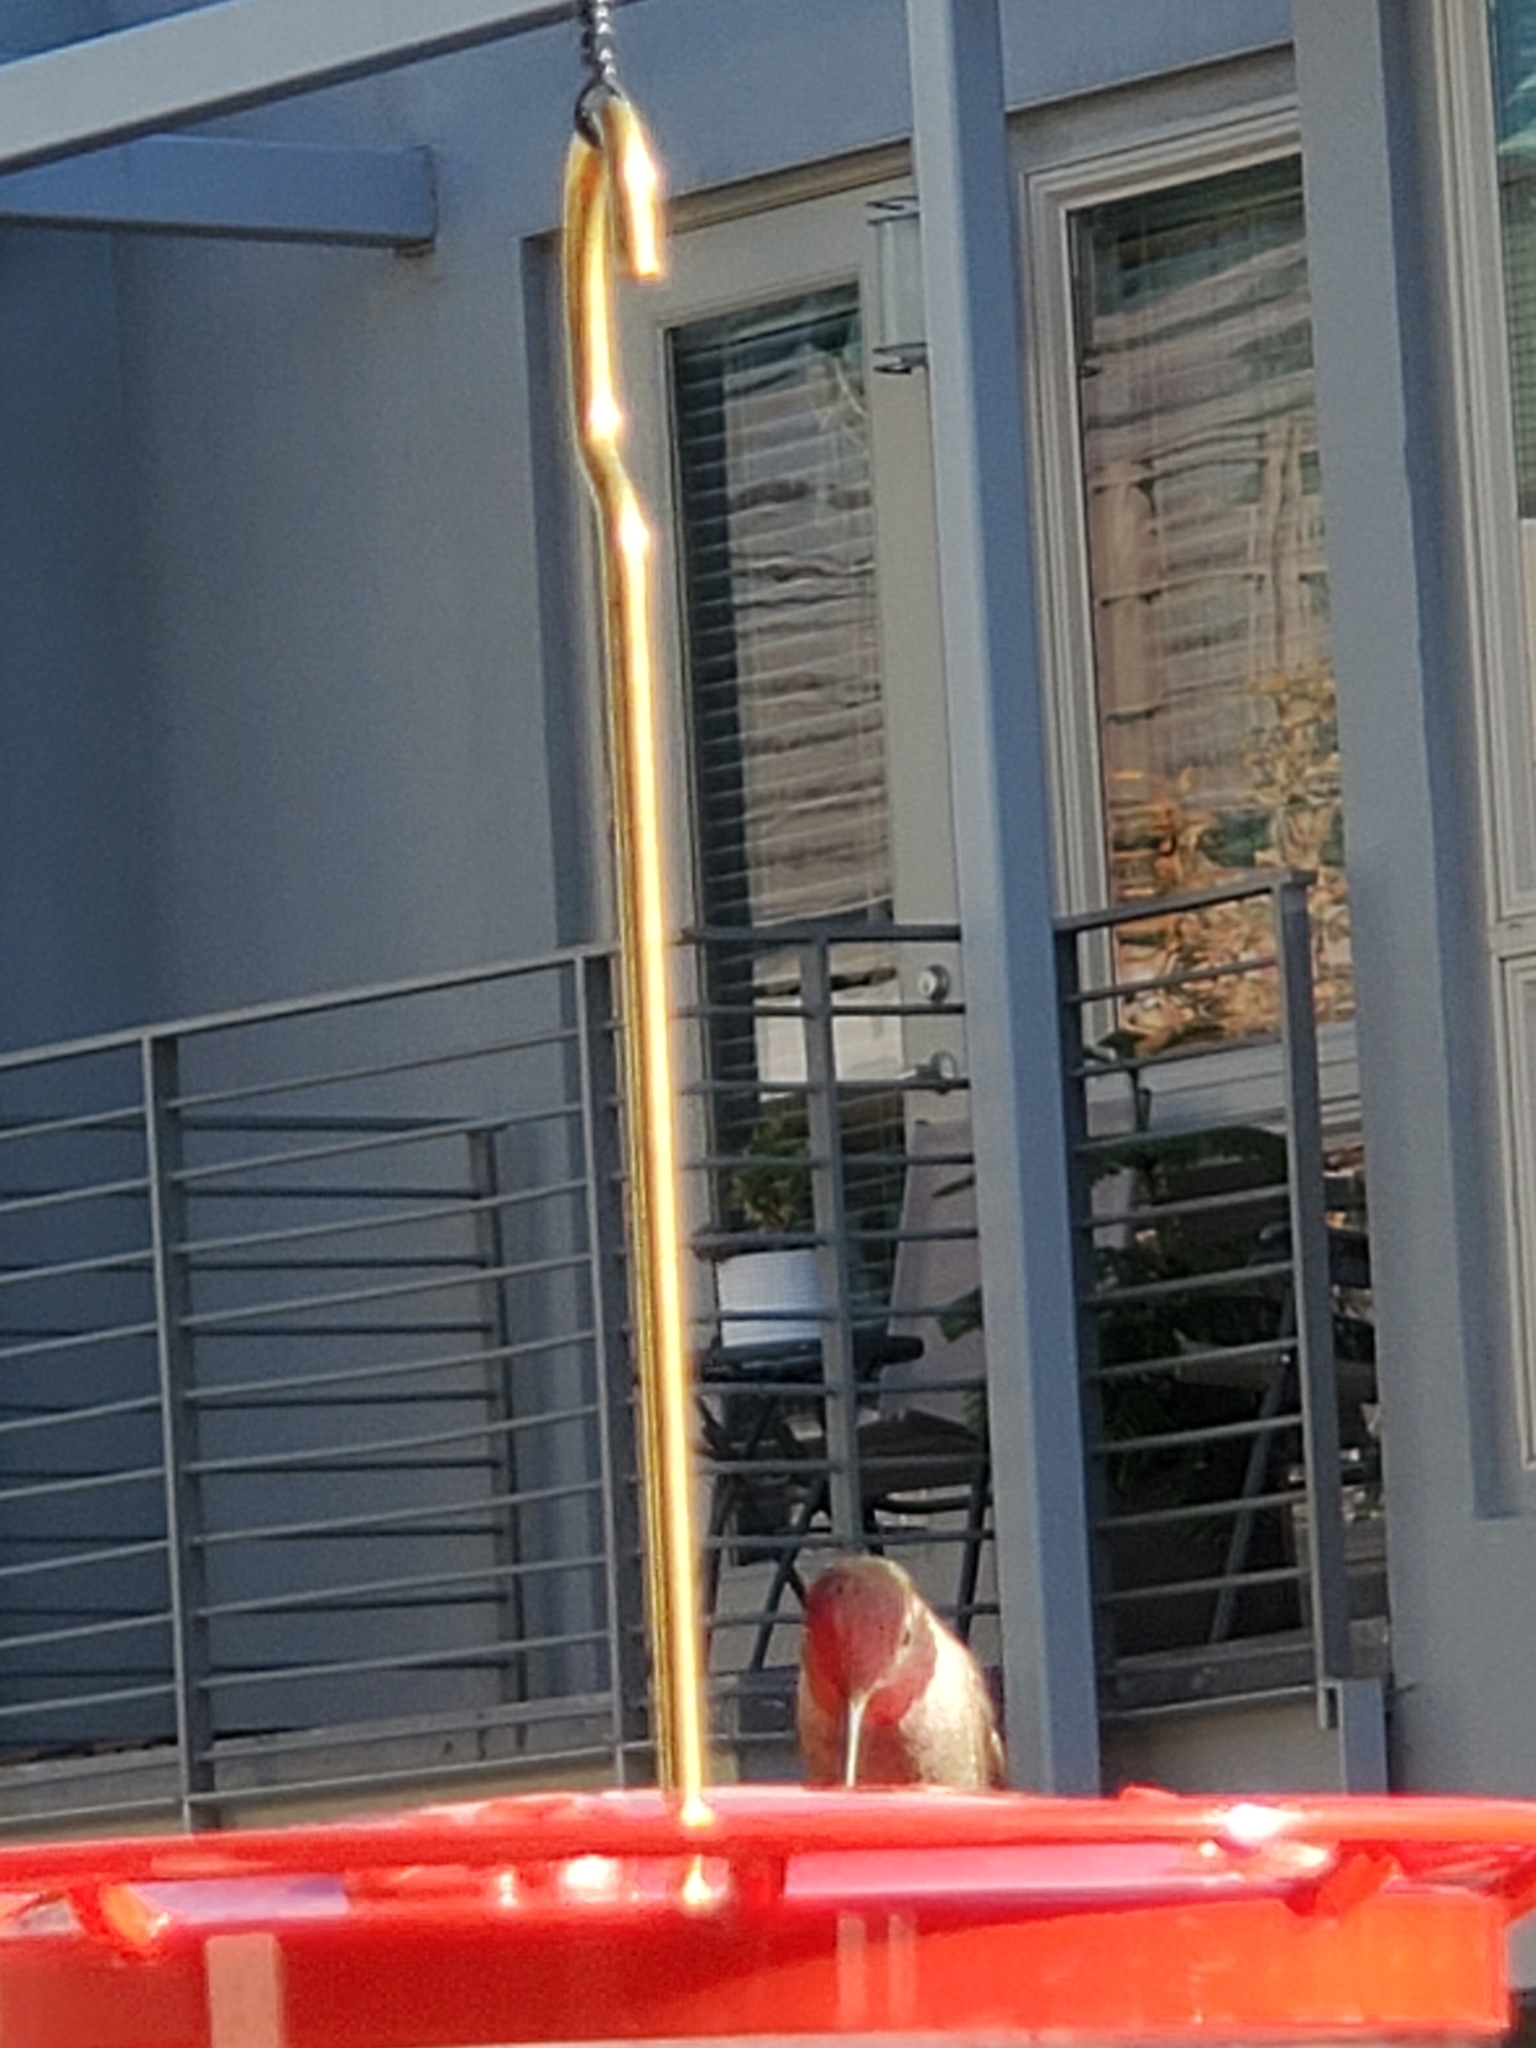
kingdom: Animalia
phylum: Chordata
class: Aves
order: Apodiformes
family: Trochilidae
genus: Selasphorus
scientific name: Selasphorus sasin
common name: Allen's hummingbird
